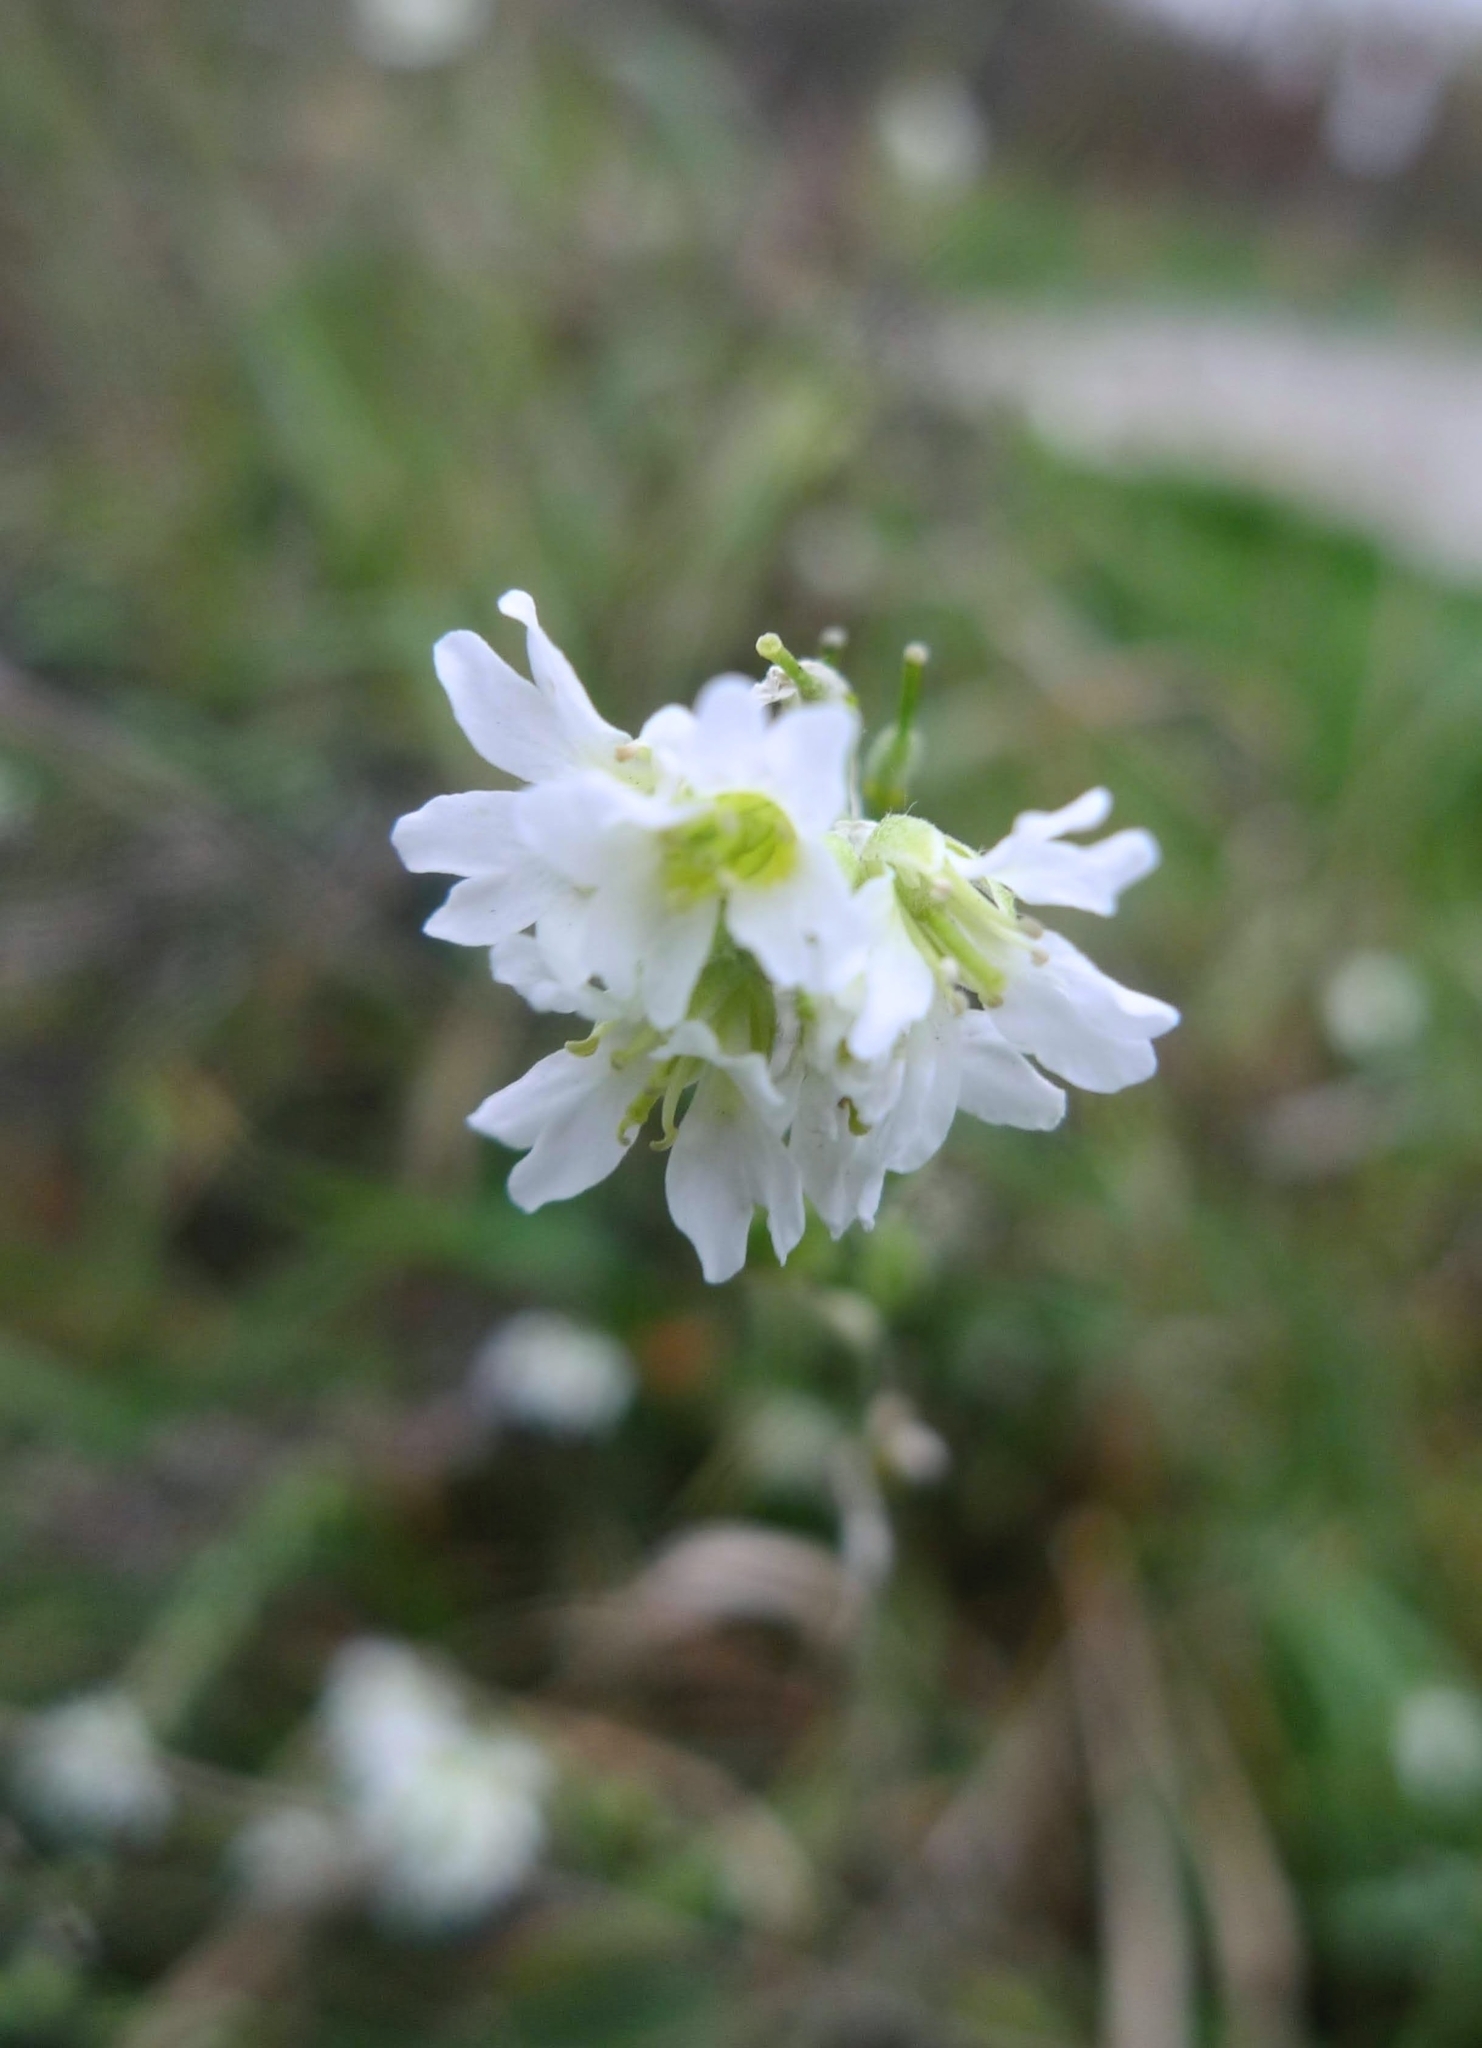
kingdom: Plantae
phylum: Tracheophyta
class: Magnoliopsida
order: Brassicales
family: Brassicaceae
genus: Berteroa
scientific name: Berteroa incana
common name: Hoary alison
